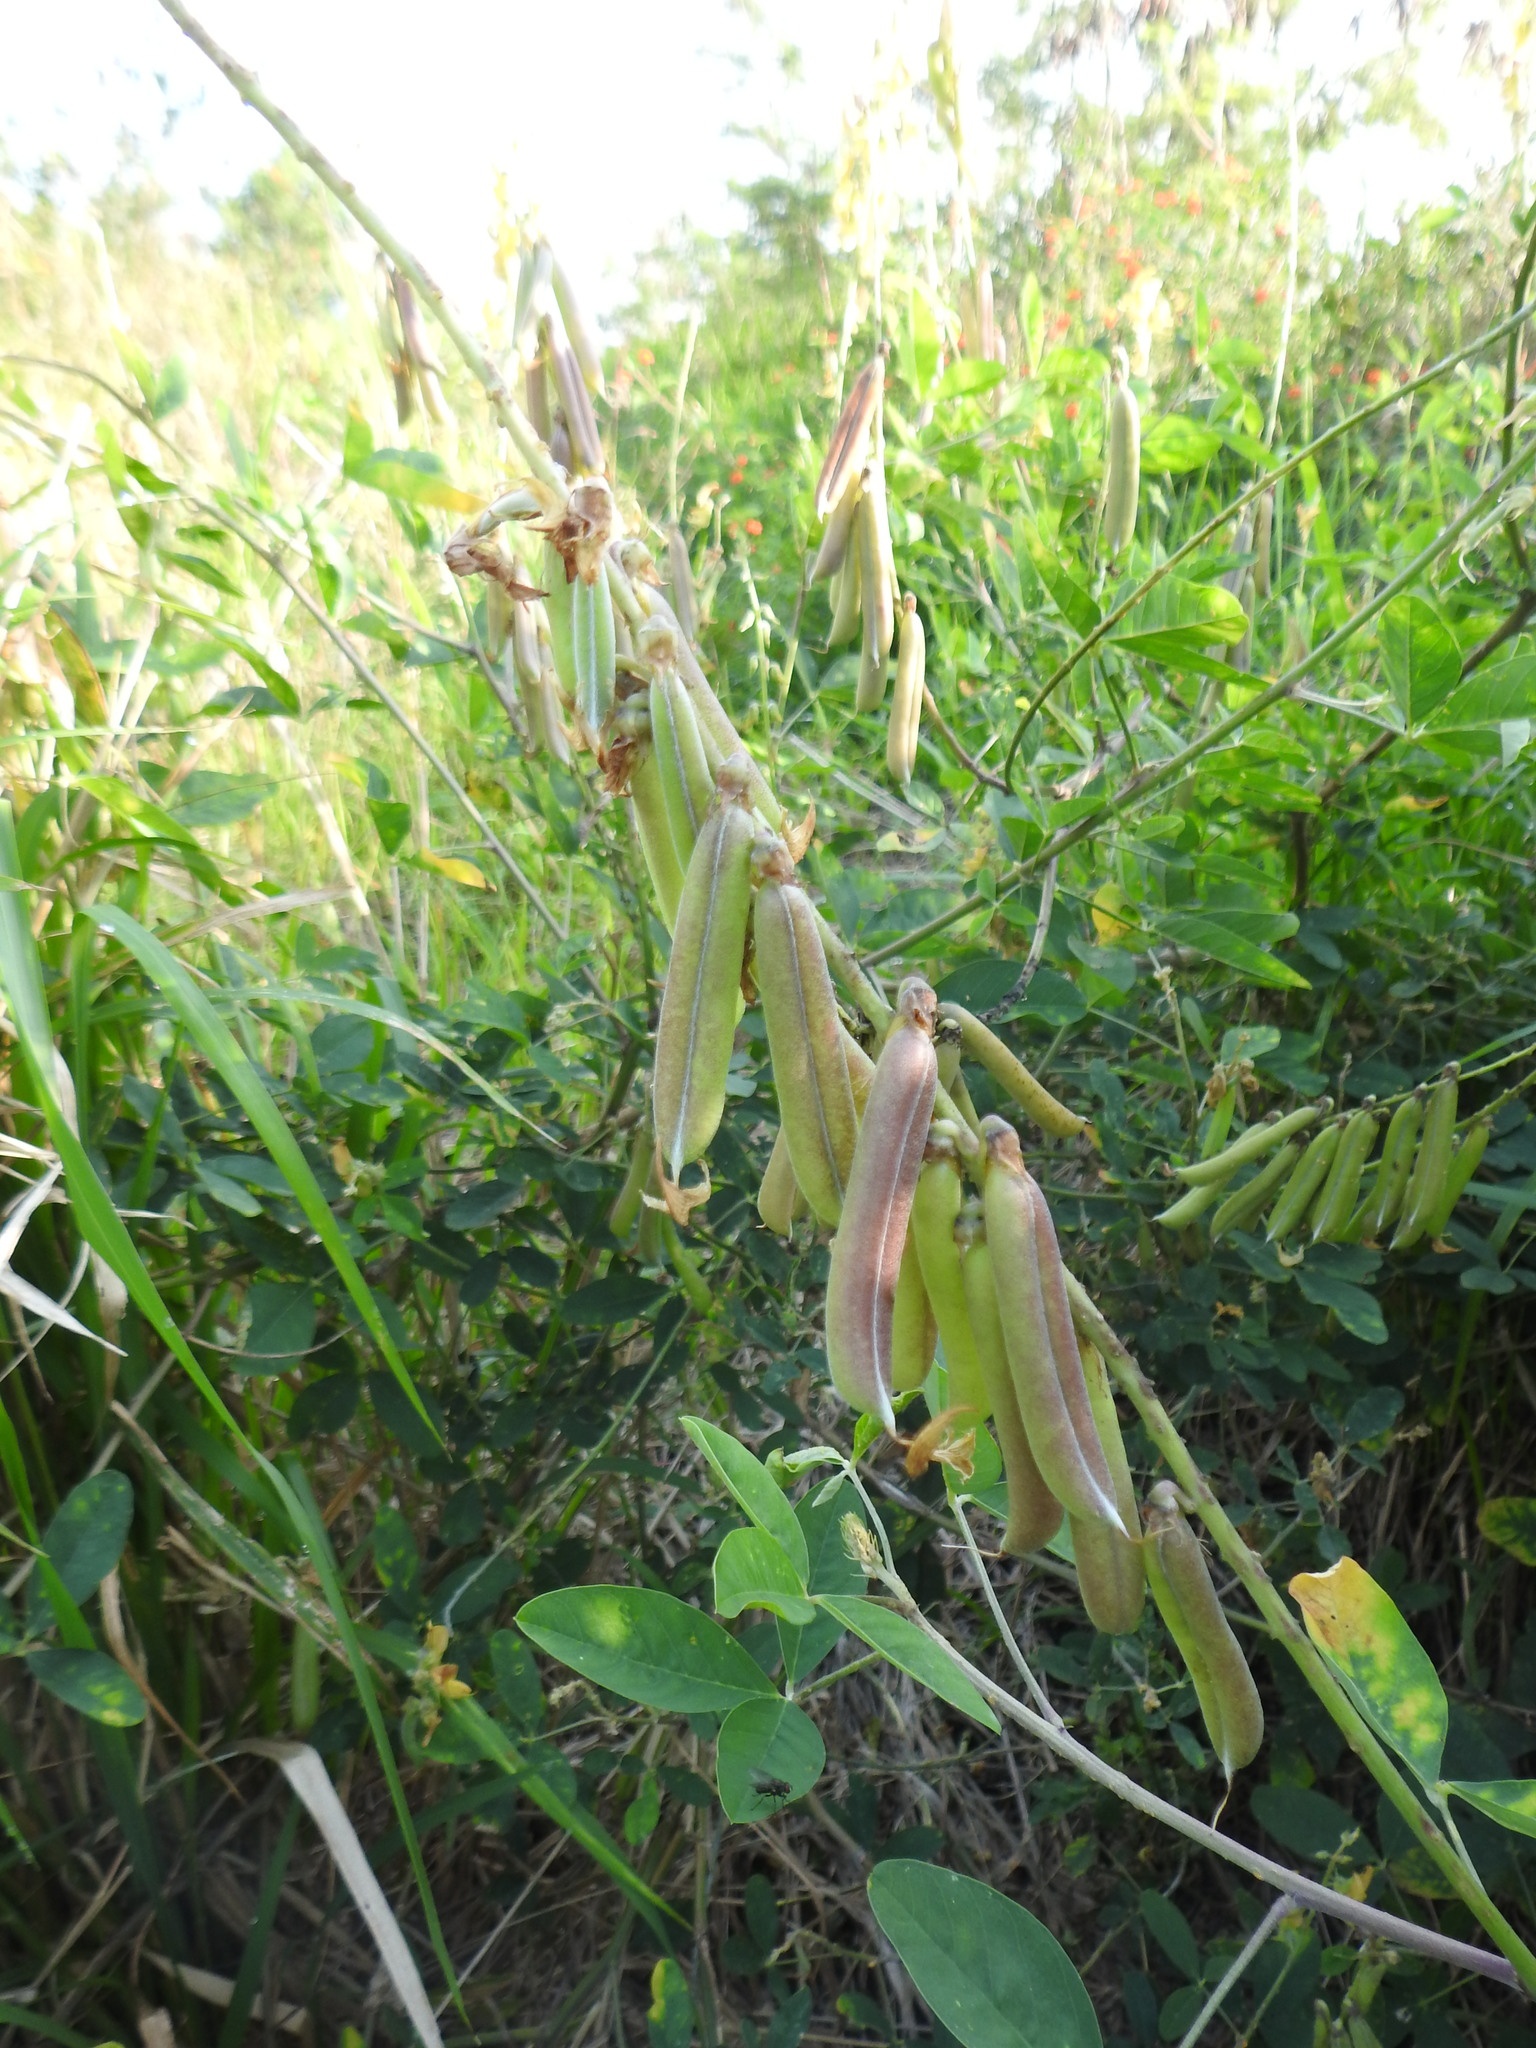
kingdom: Plantae
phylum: Tracheophyta
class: Magnoliopsida
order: Fabales
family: Fabaceae
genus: Crotalaria
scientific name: Crotalaria pallida
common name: Smooth rattlebox
